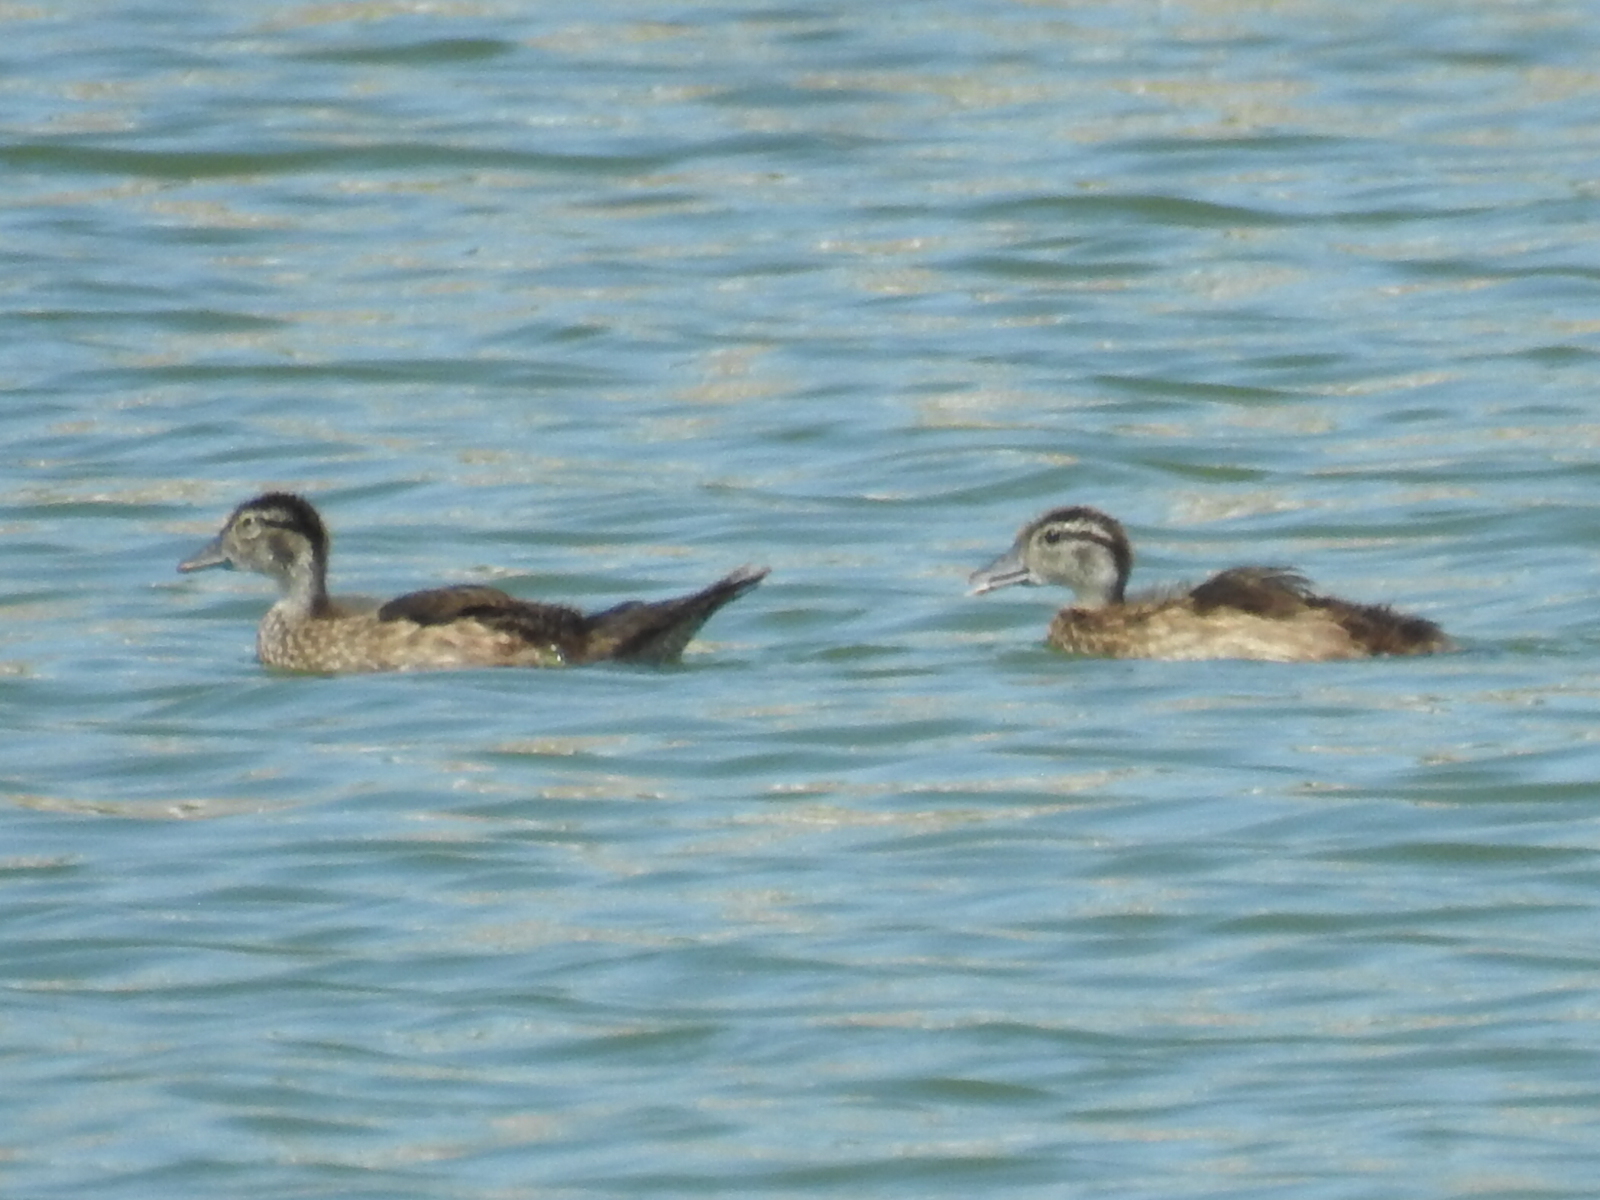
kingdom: Animalia
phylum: Chordata
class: Aves
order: Anseriformes
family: Anatidae
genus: Aix
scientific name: Aix sponsa
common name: Wood duck
